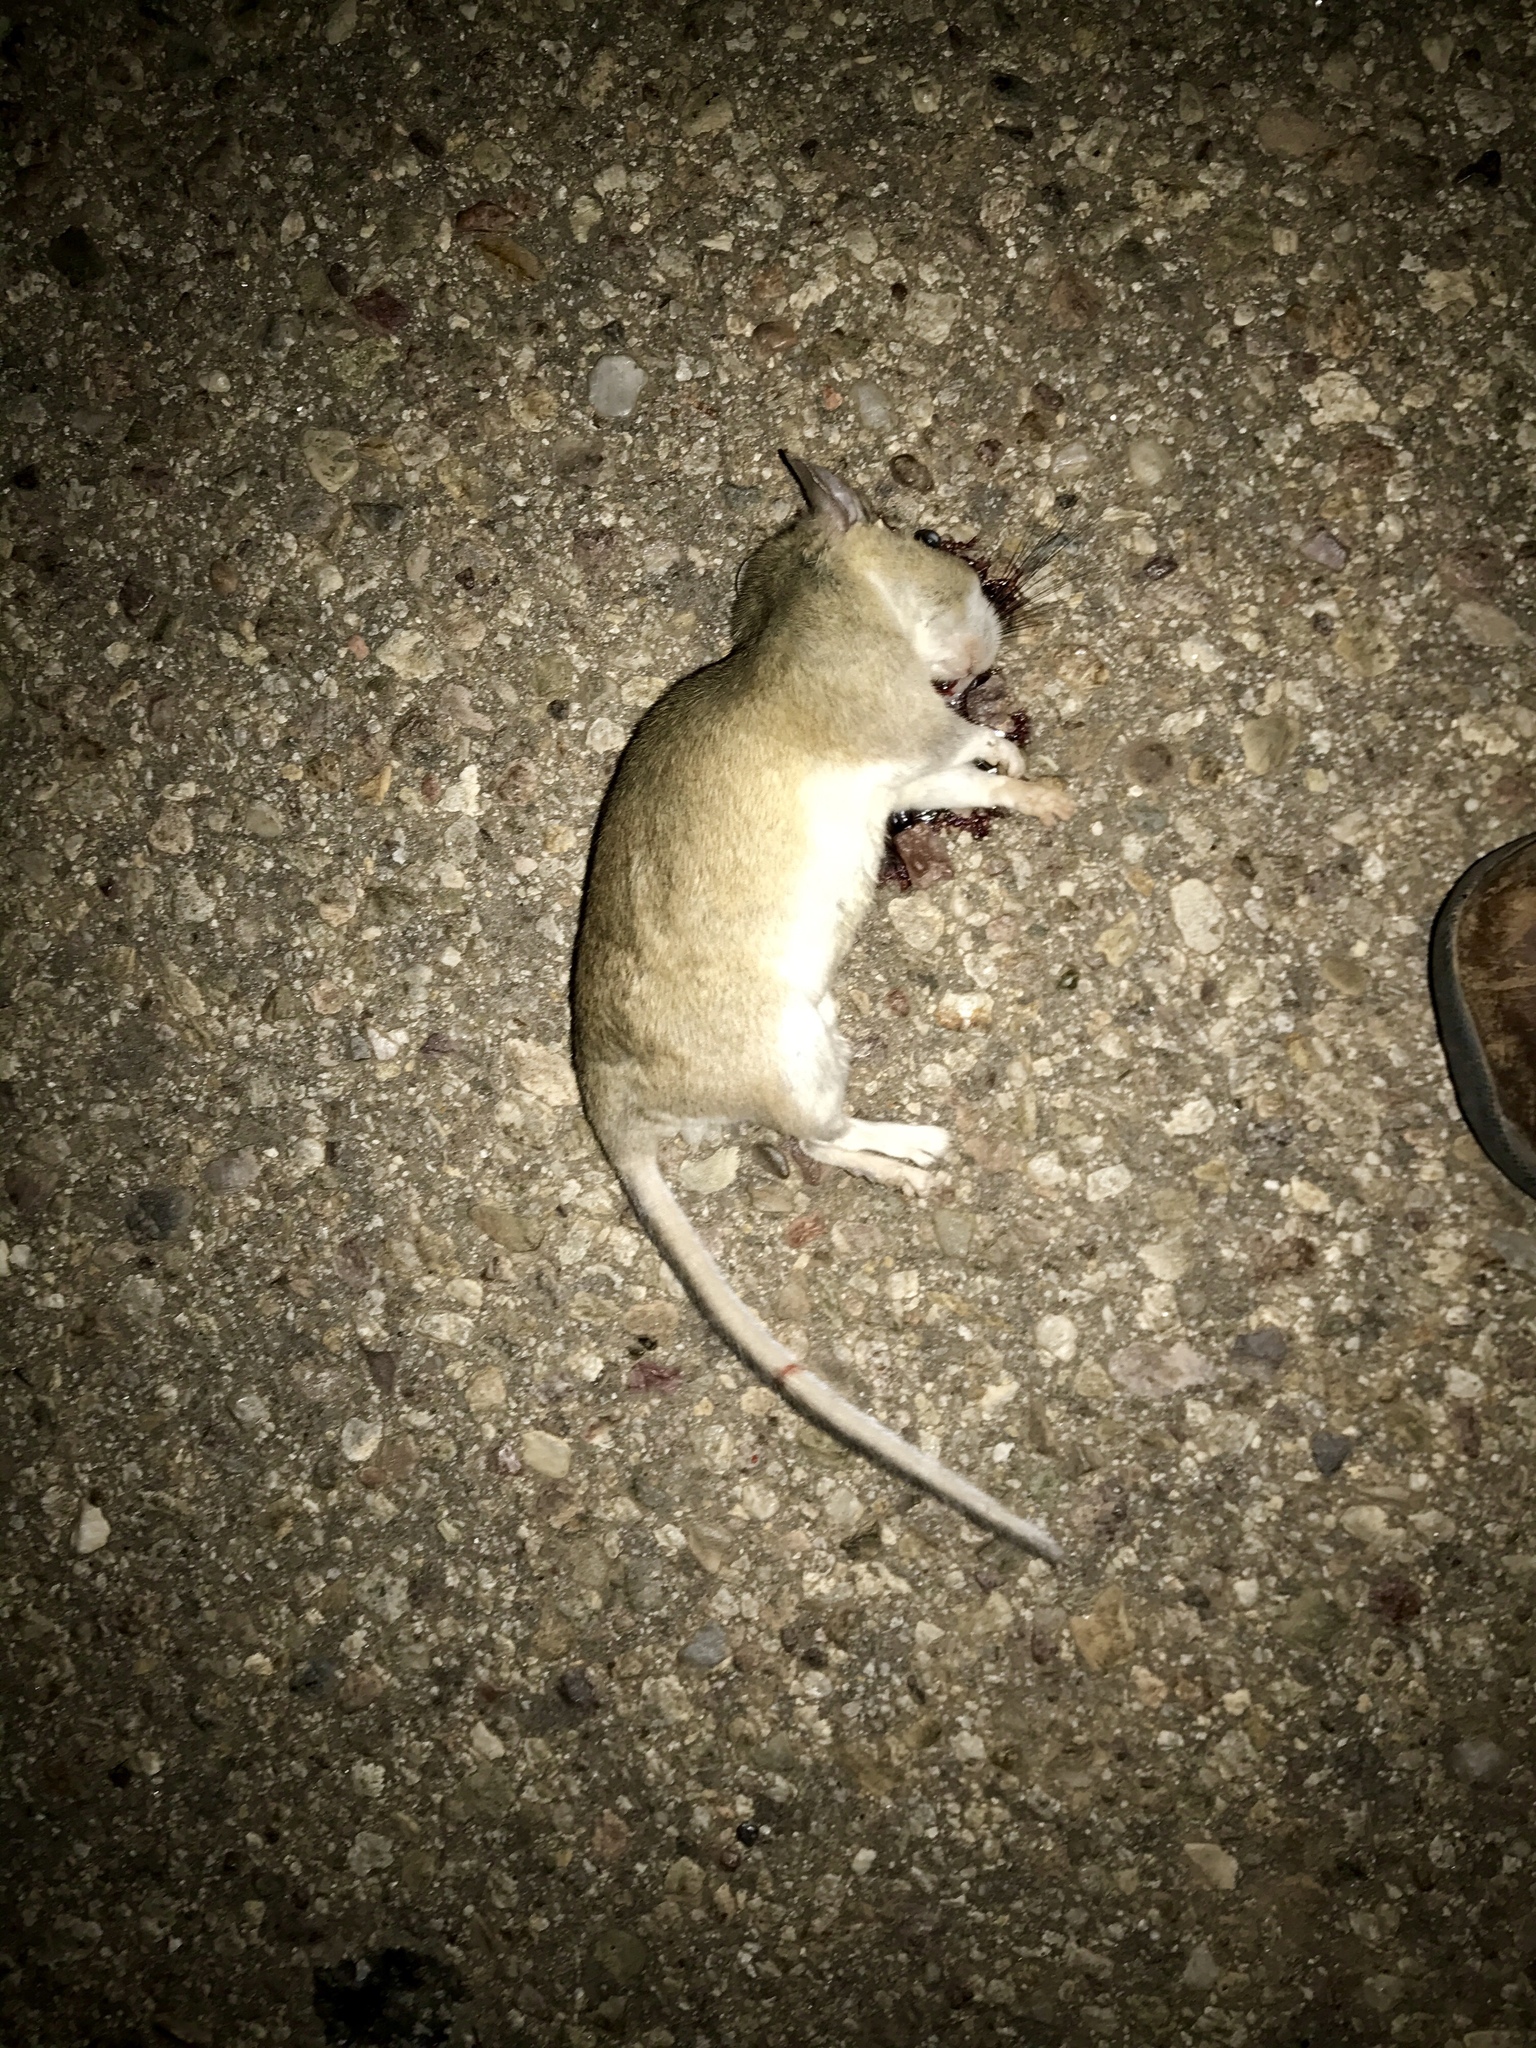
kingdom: Animalia
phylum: Chordata
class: Mammalia
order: Rodentia
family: Cricetidae
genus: Neotoma
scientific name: Neotoma albigula
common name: White-throated woodrat
